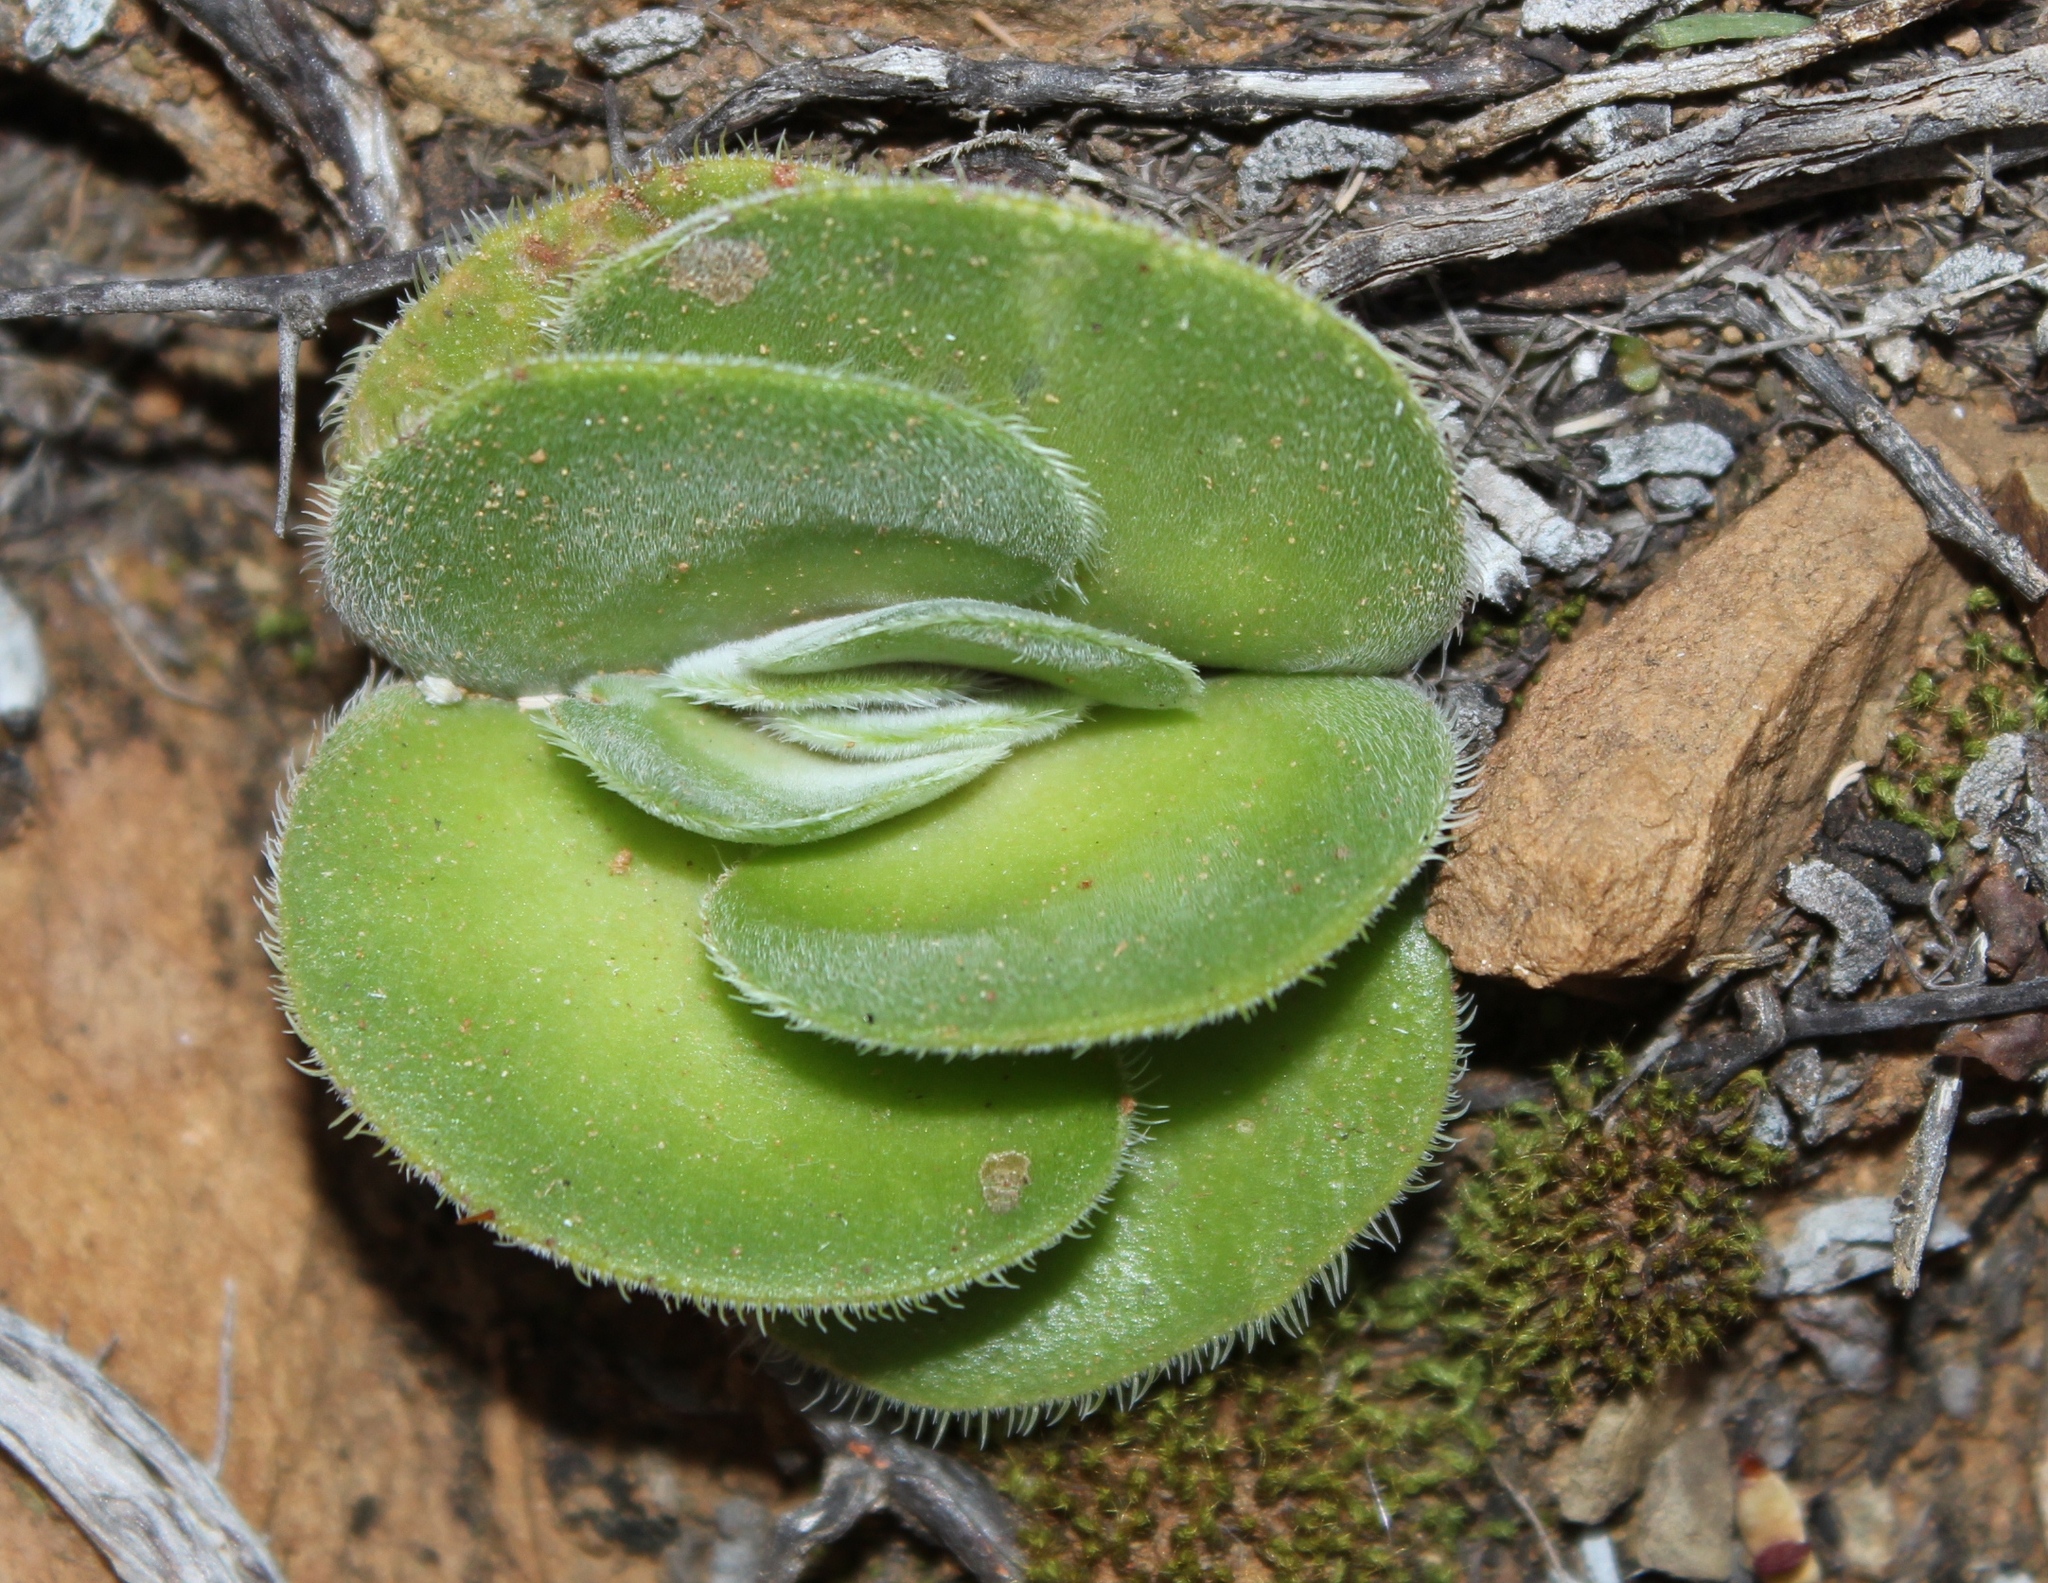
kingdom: Plantae
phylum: Tracheophyta
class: Magnoliopsida
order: Saxifragales
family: Crassulaceae
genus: Crassula
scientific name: Crassula tomentosa
